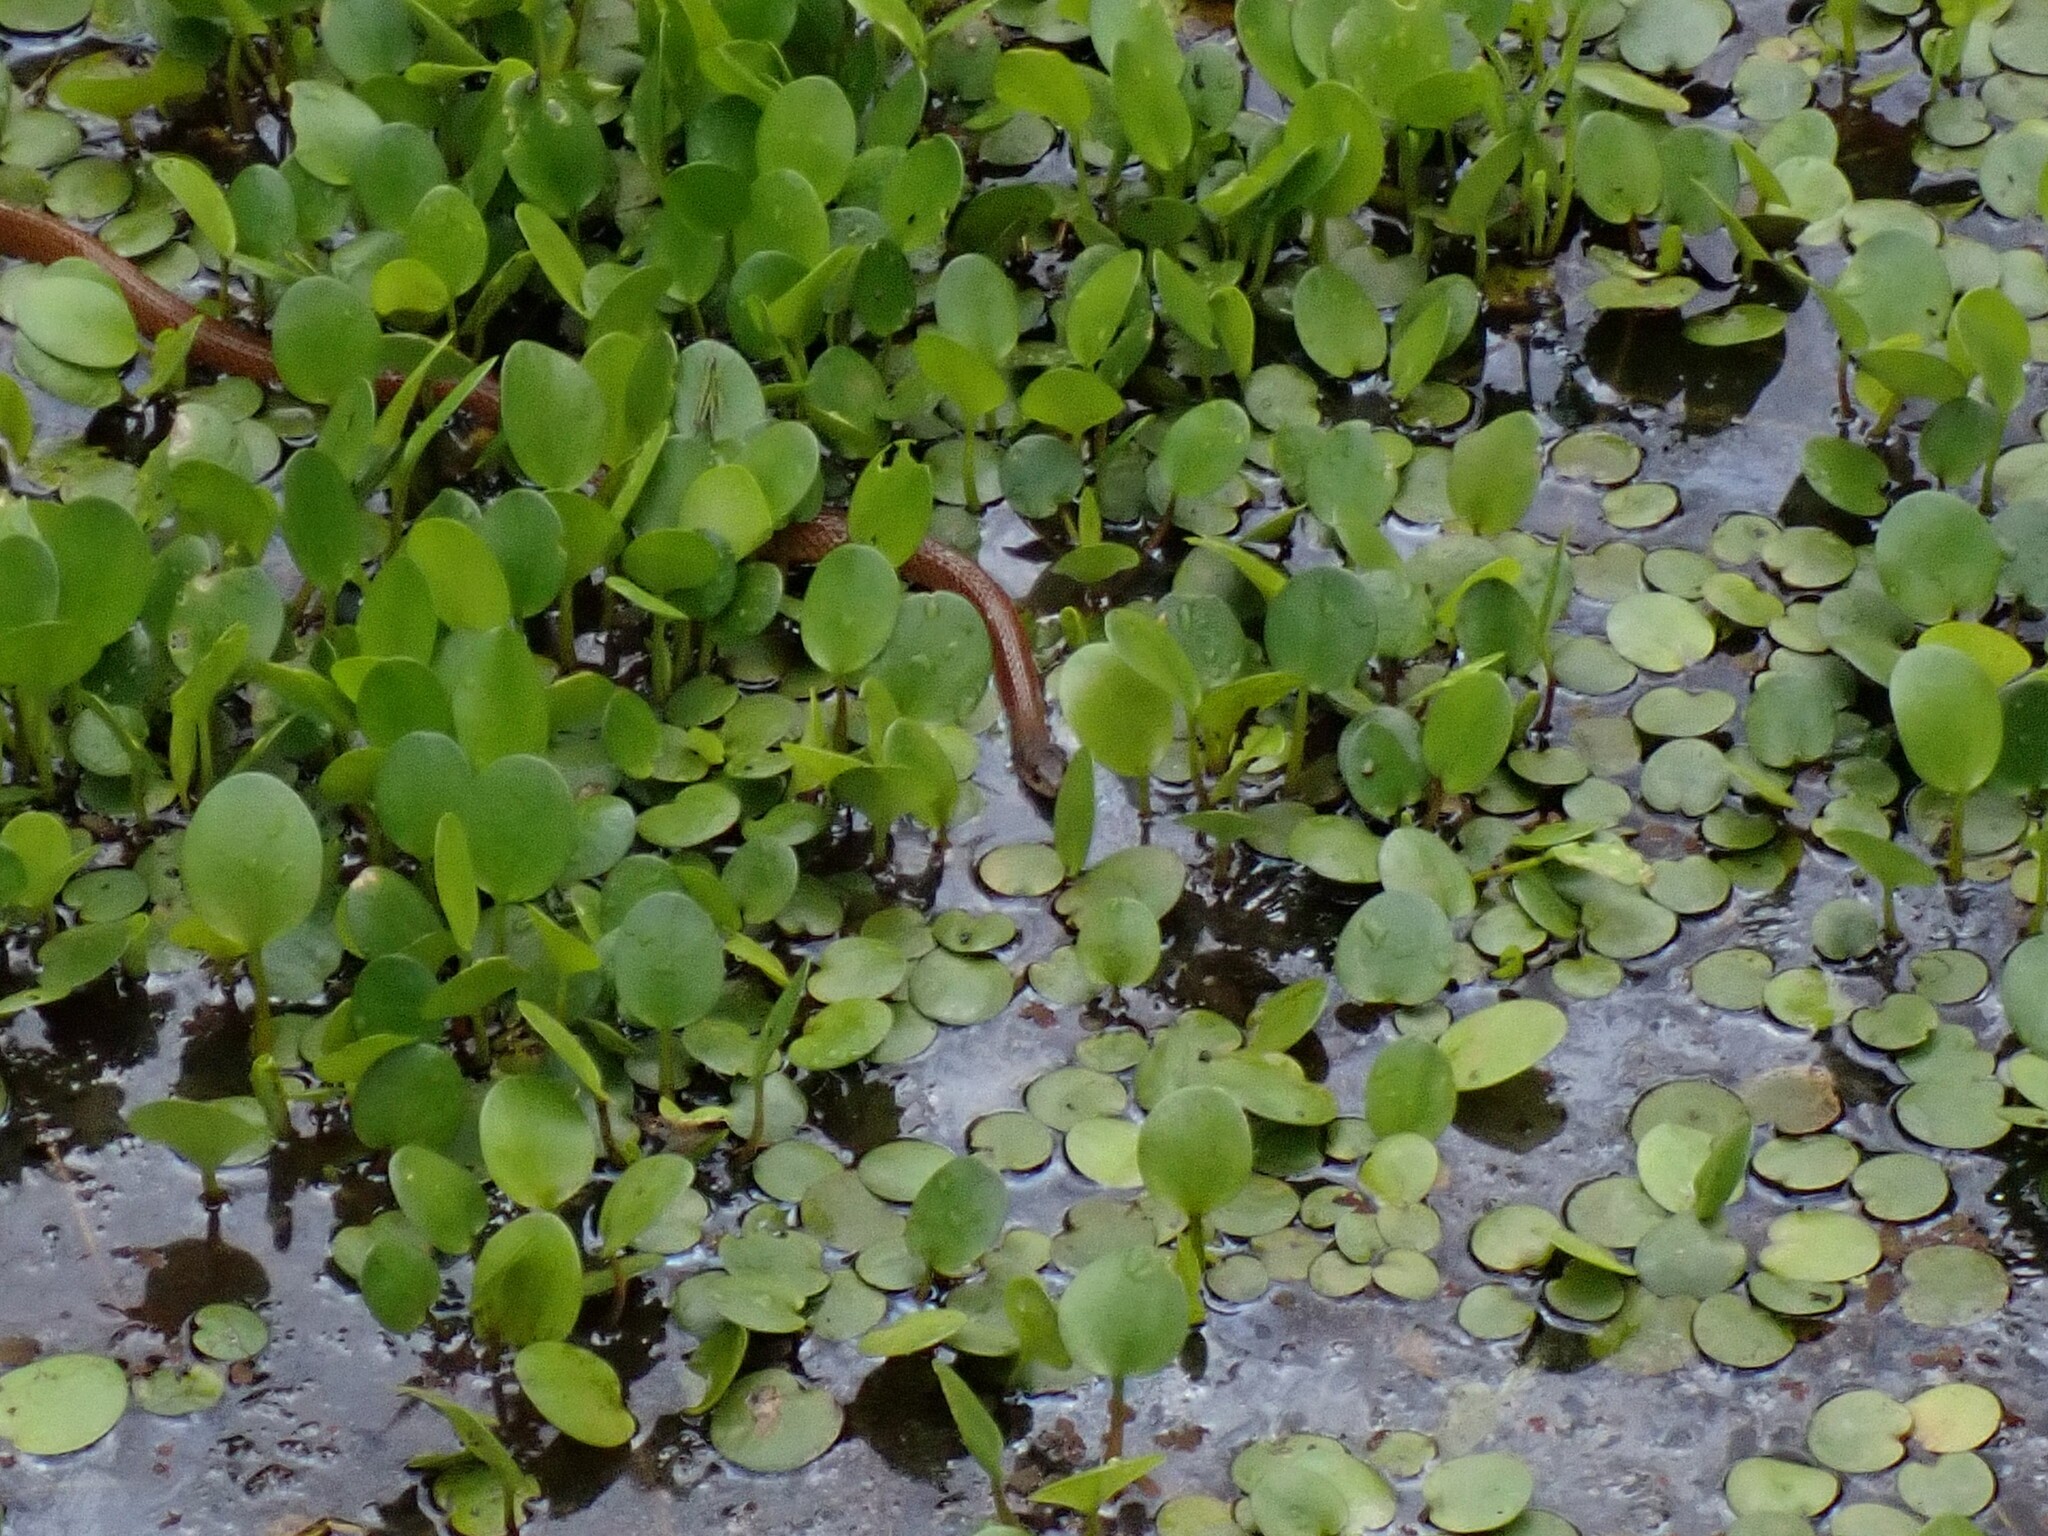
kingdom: Animalia
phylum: Chordata
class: Squamata
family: Colubridae
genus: Tropidonophis
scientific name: Tropidonophis mairii
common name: Common keelback
